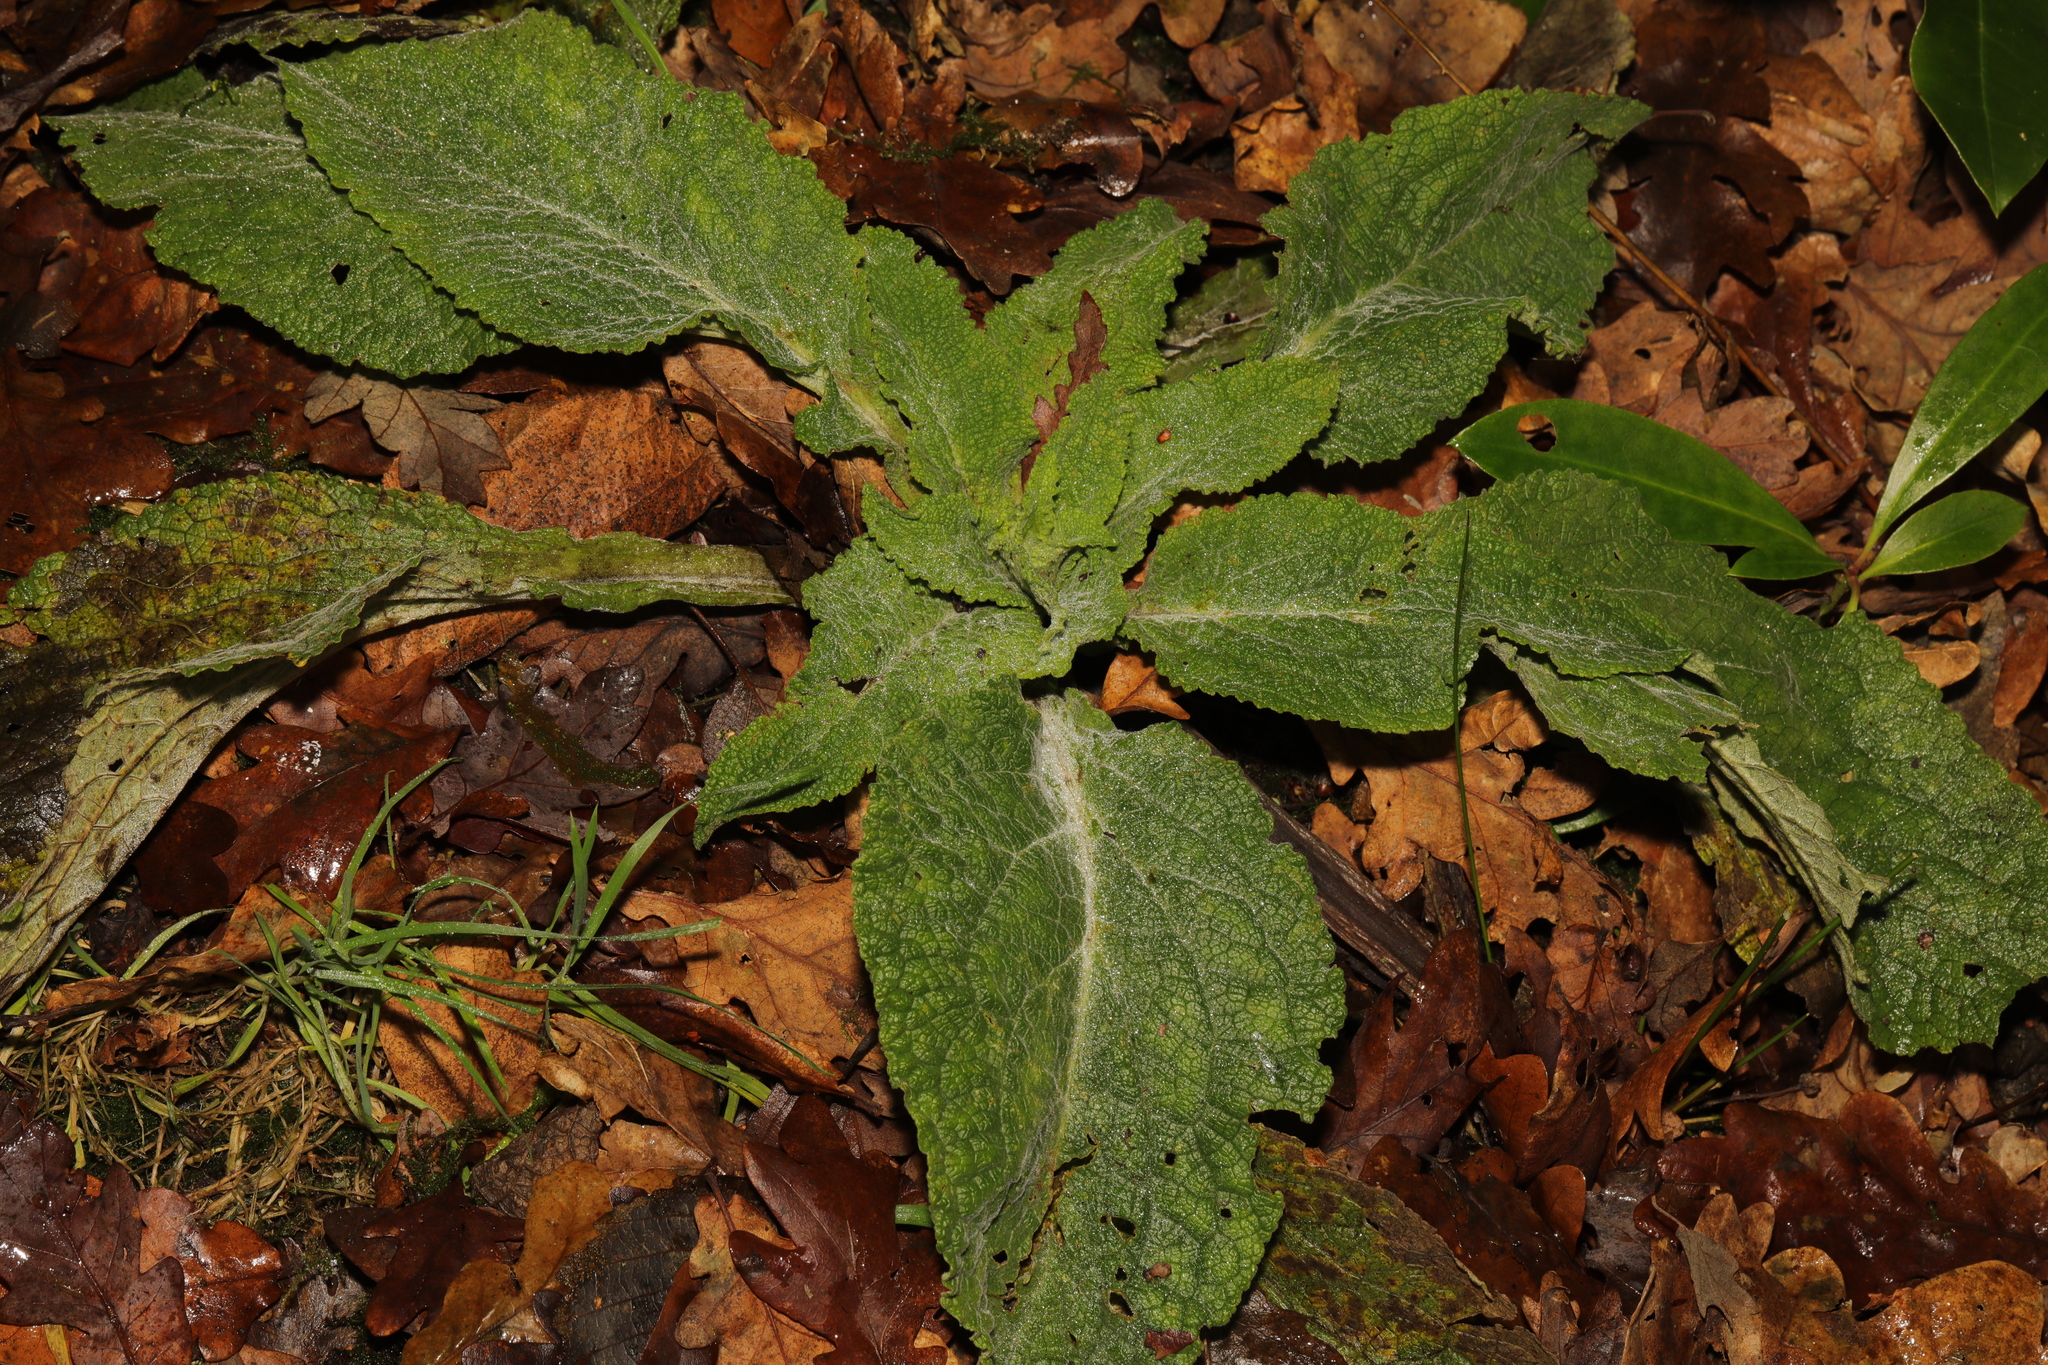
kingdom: Plantae
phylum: Tracheophyta
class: Magnoliopsida
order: Lamiales
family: Plantaginaceae
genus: Digitalis
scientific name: Digitalis purpurea
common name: Foxglove
